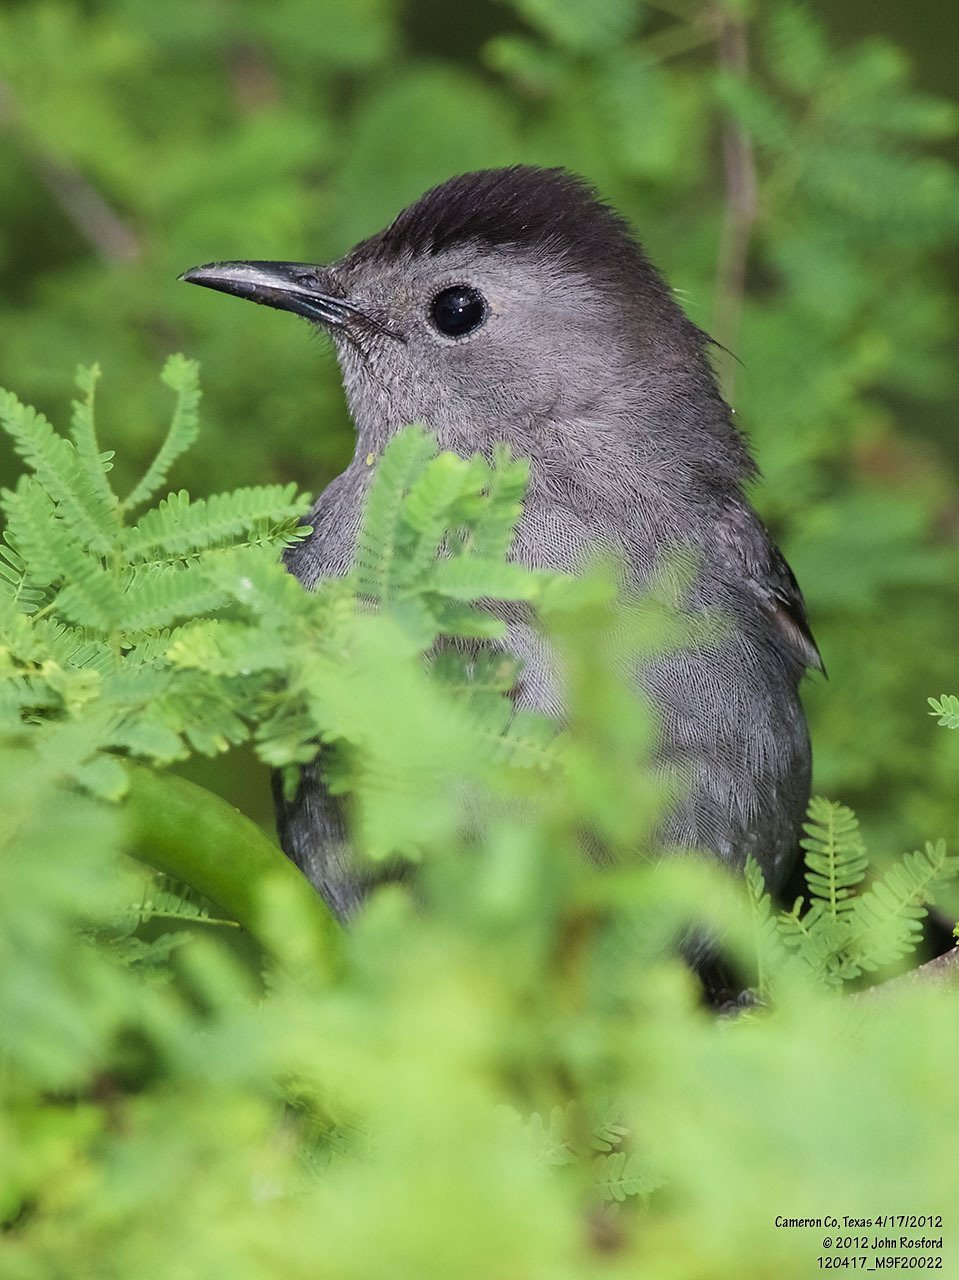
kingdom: Animalia
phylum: Chordata
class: Aves
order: Passeriformes
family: Mimidae
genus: Dumetella
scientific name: Dumetella carolinensis
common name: Gray catbird
